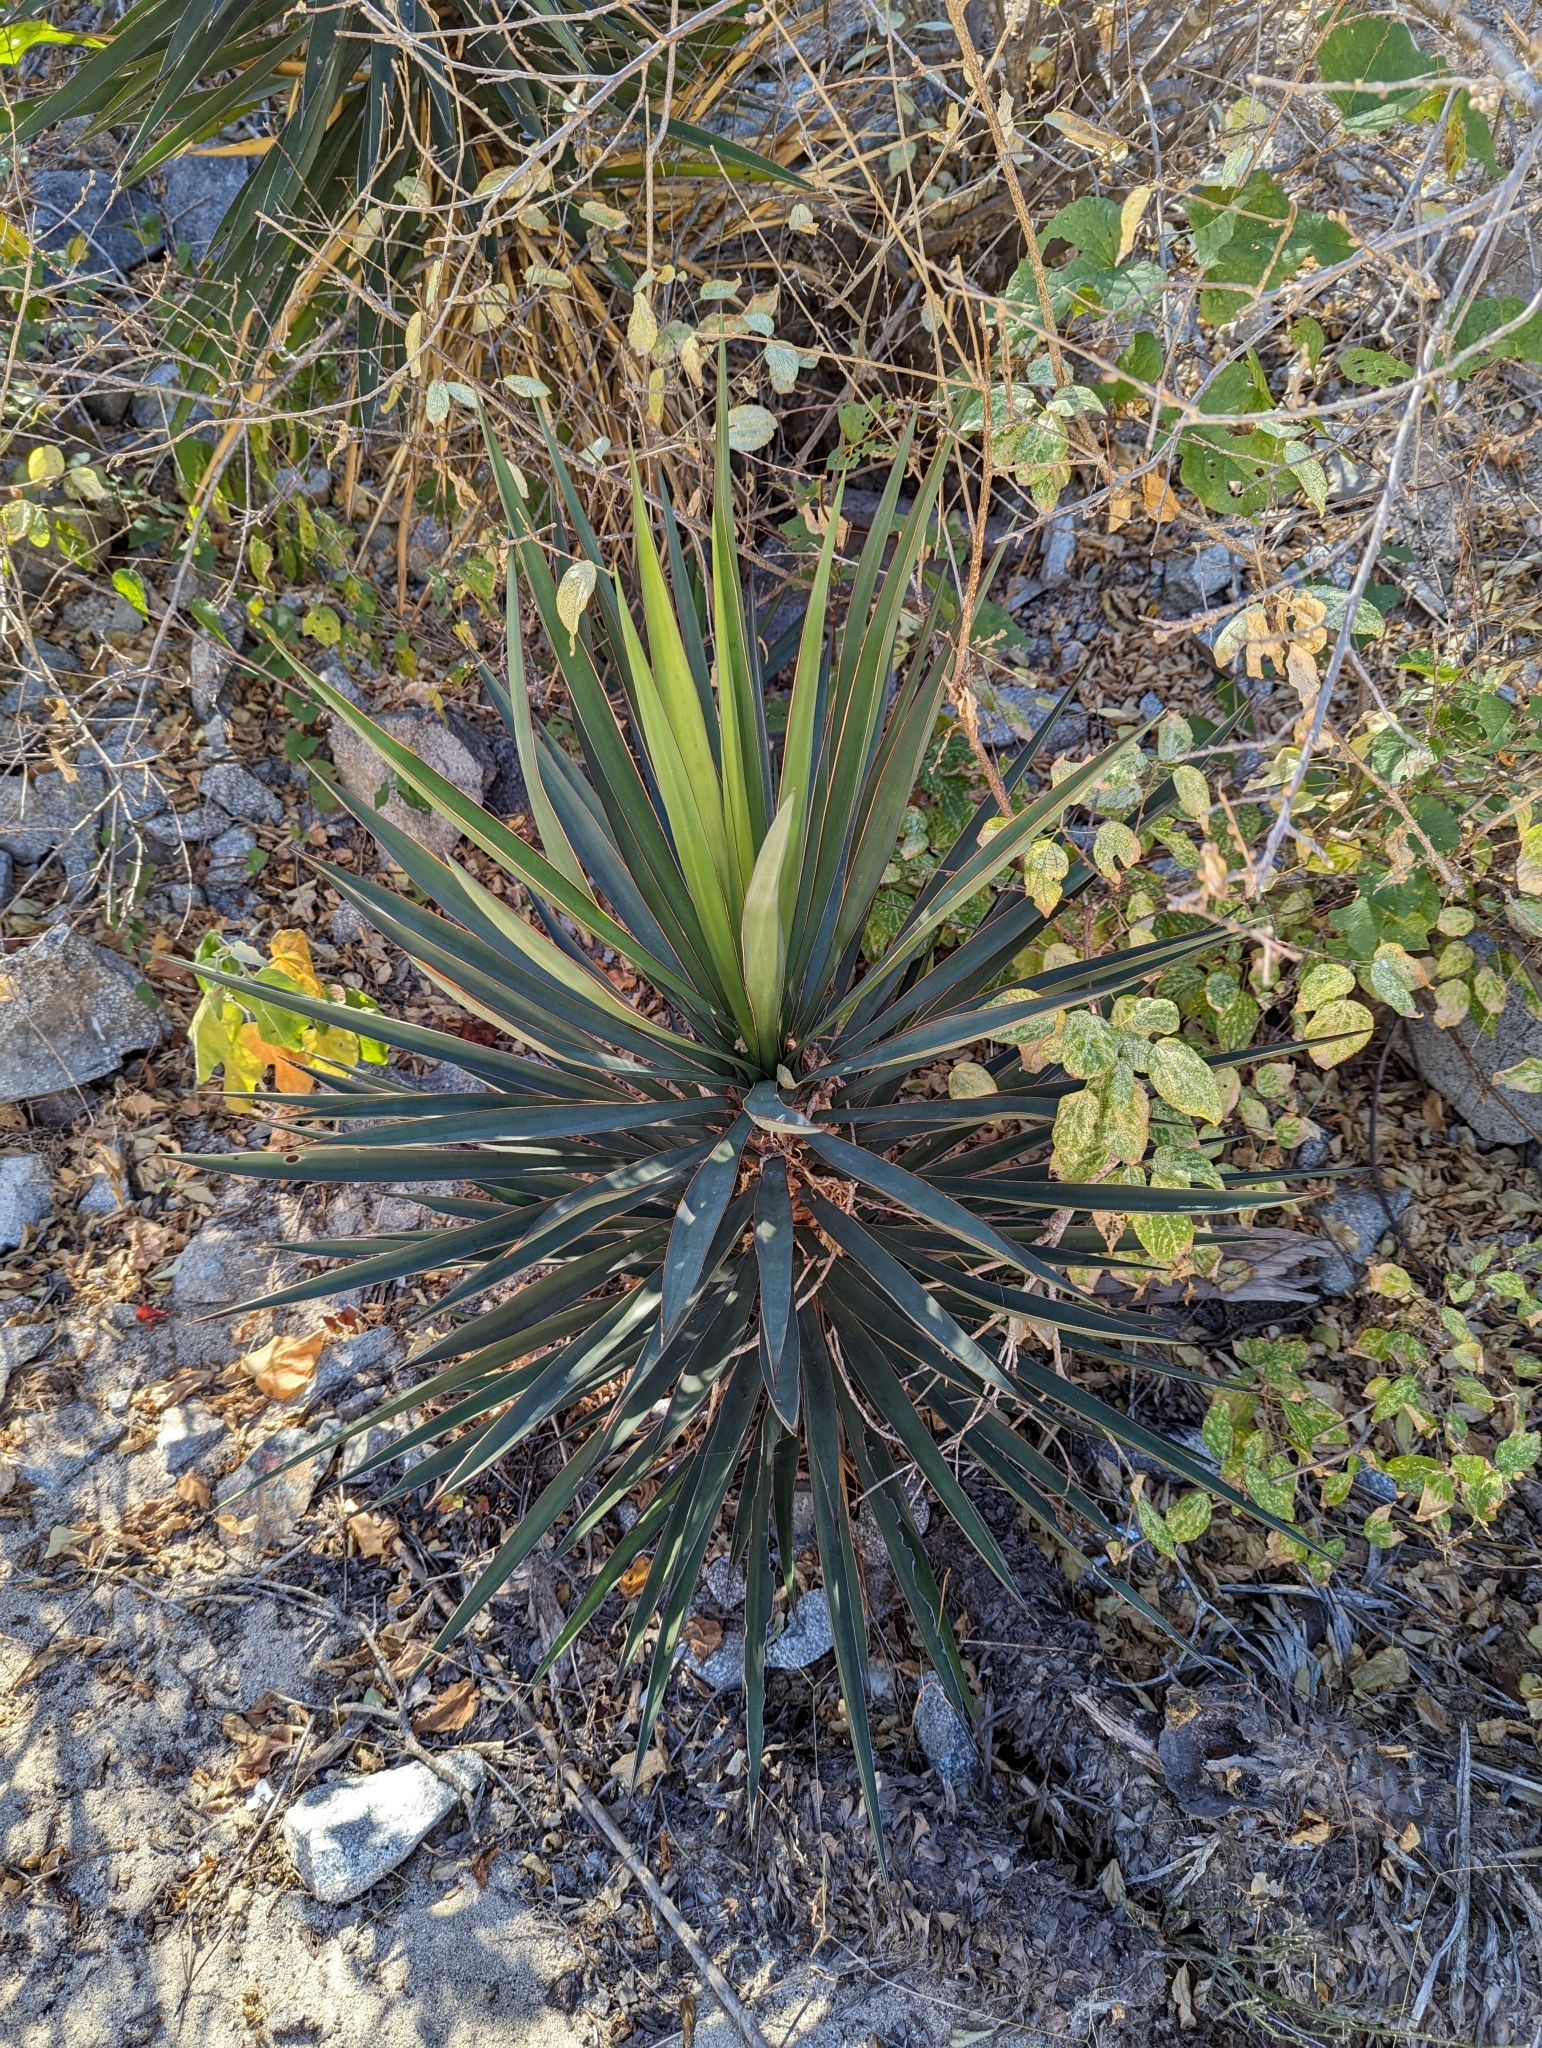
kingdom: Plantae
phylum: Tracheophyta
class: Liliopsida
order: Asparagales
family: Asparagaceae
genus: Yucca
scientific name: Yucca capensis
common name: Cape region yucca
